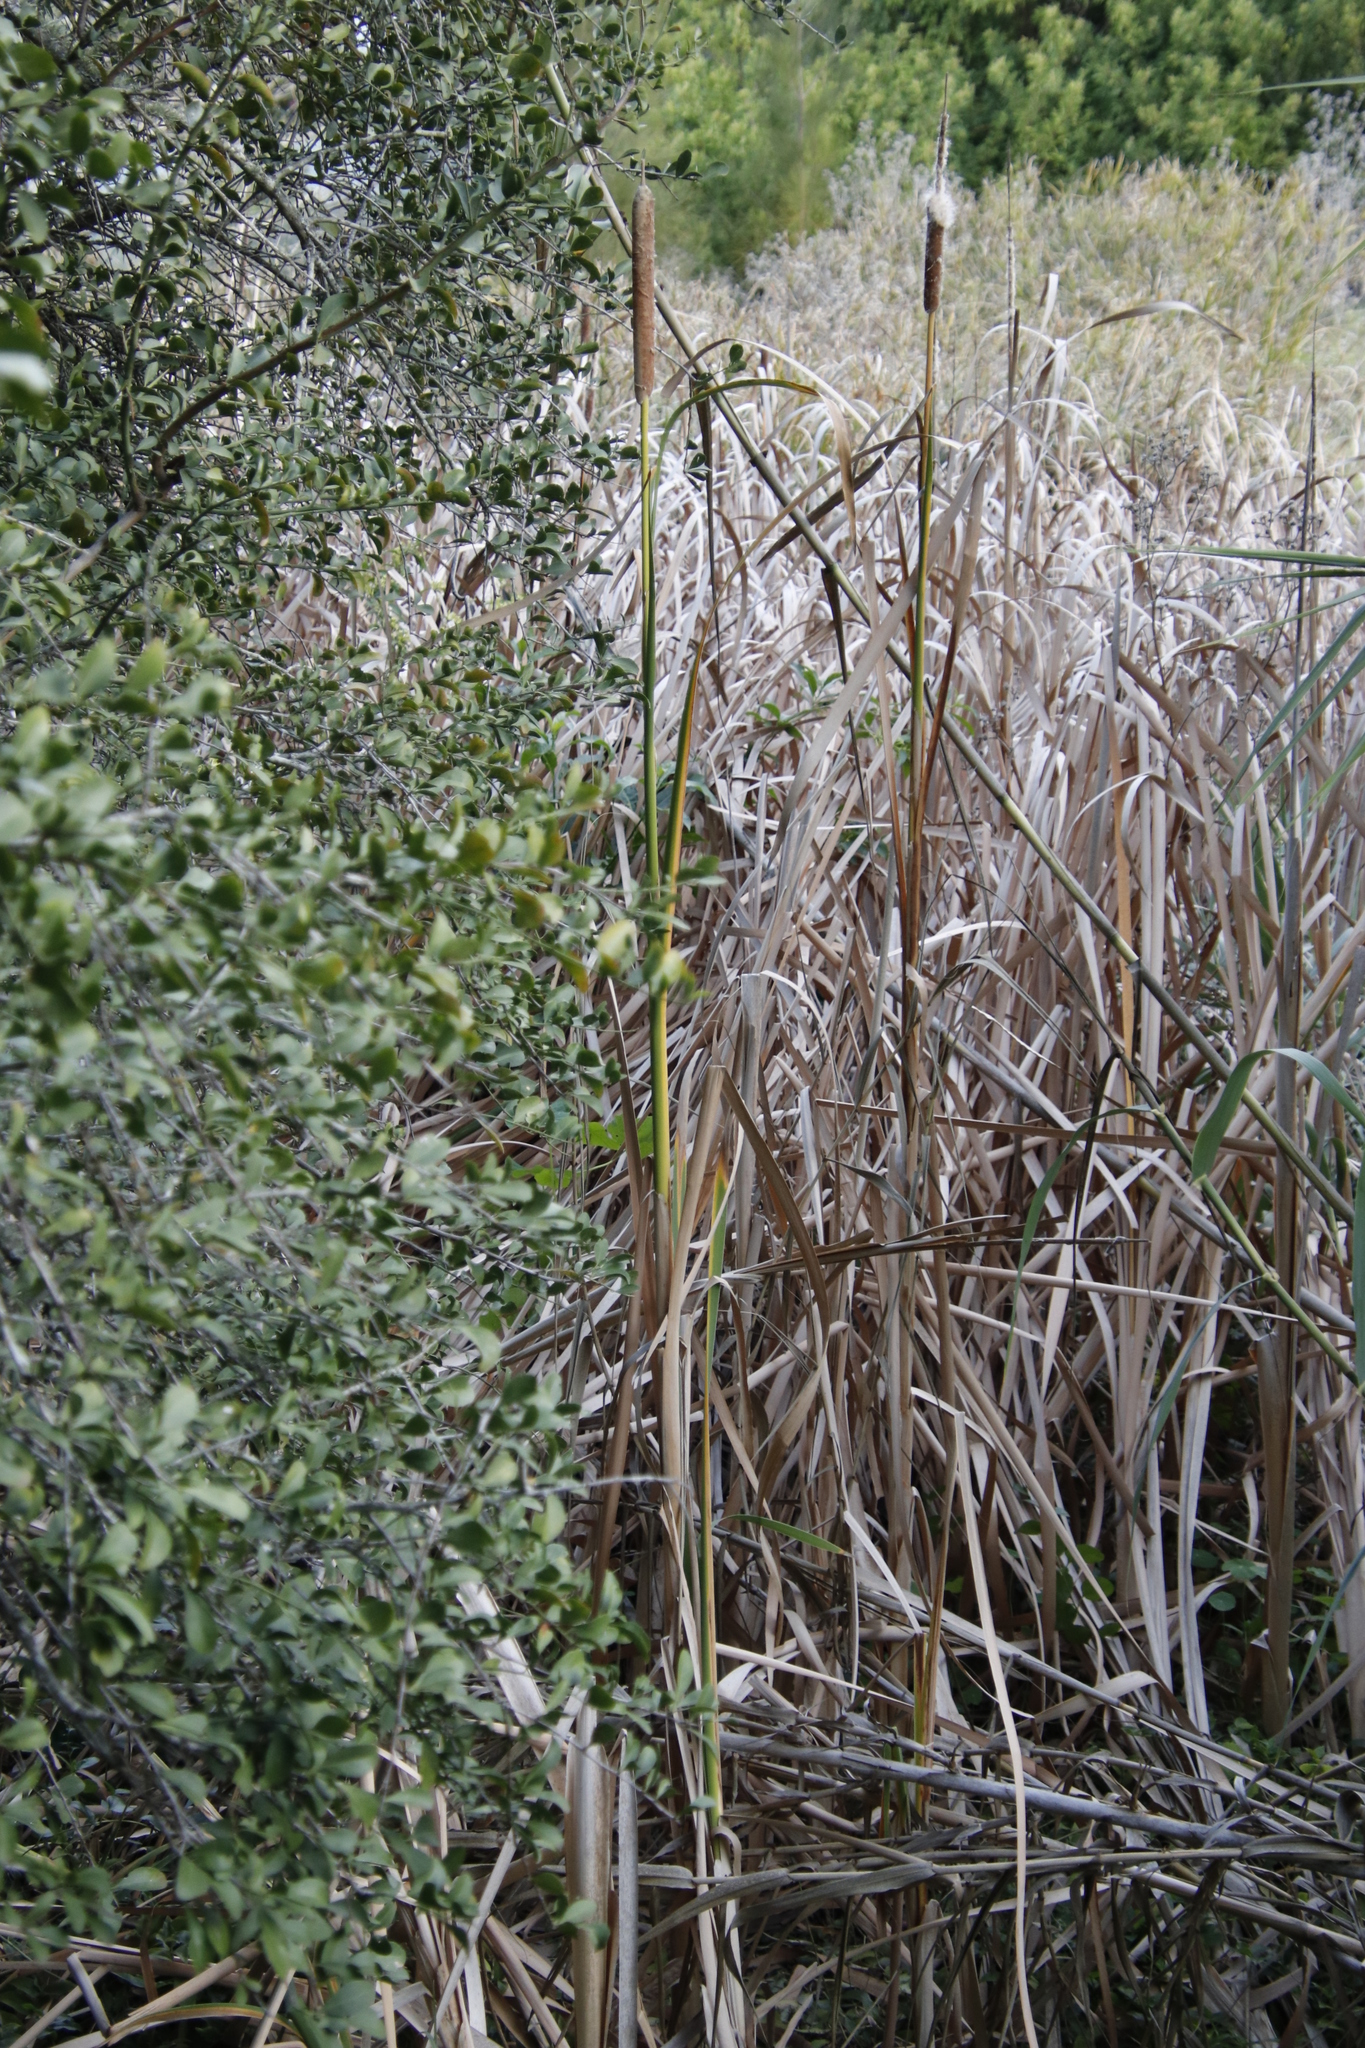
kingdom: Plantae
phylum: Tracheophyta
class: Liliopsida
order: Poales
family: Typhaceae
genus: Typha
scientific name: Typha capensis
